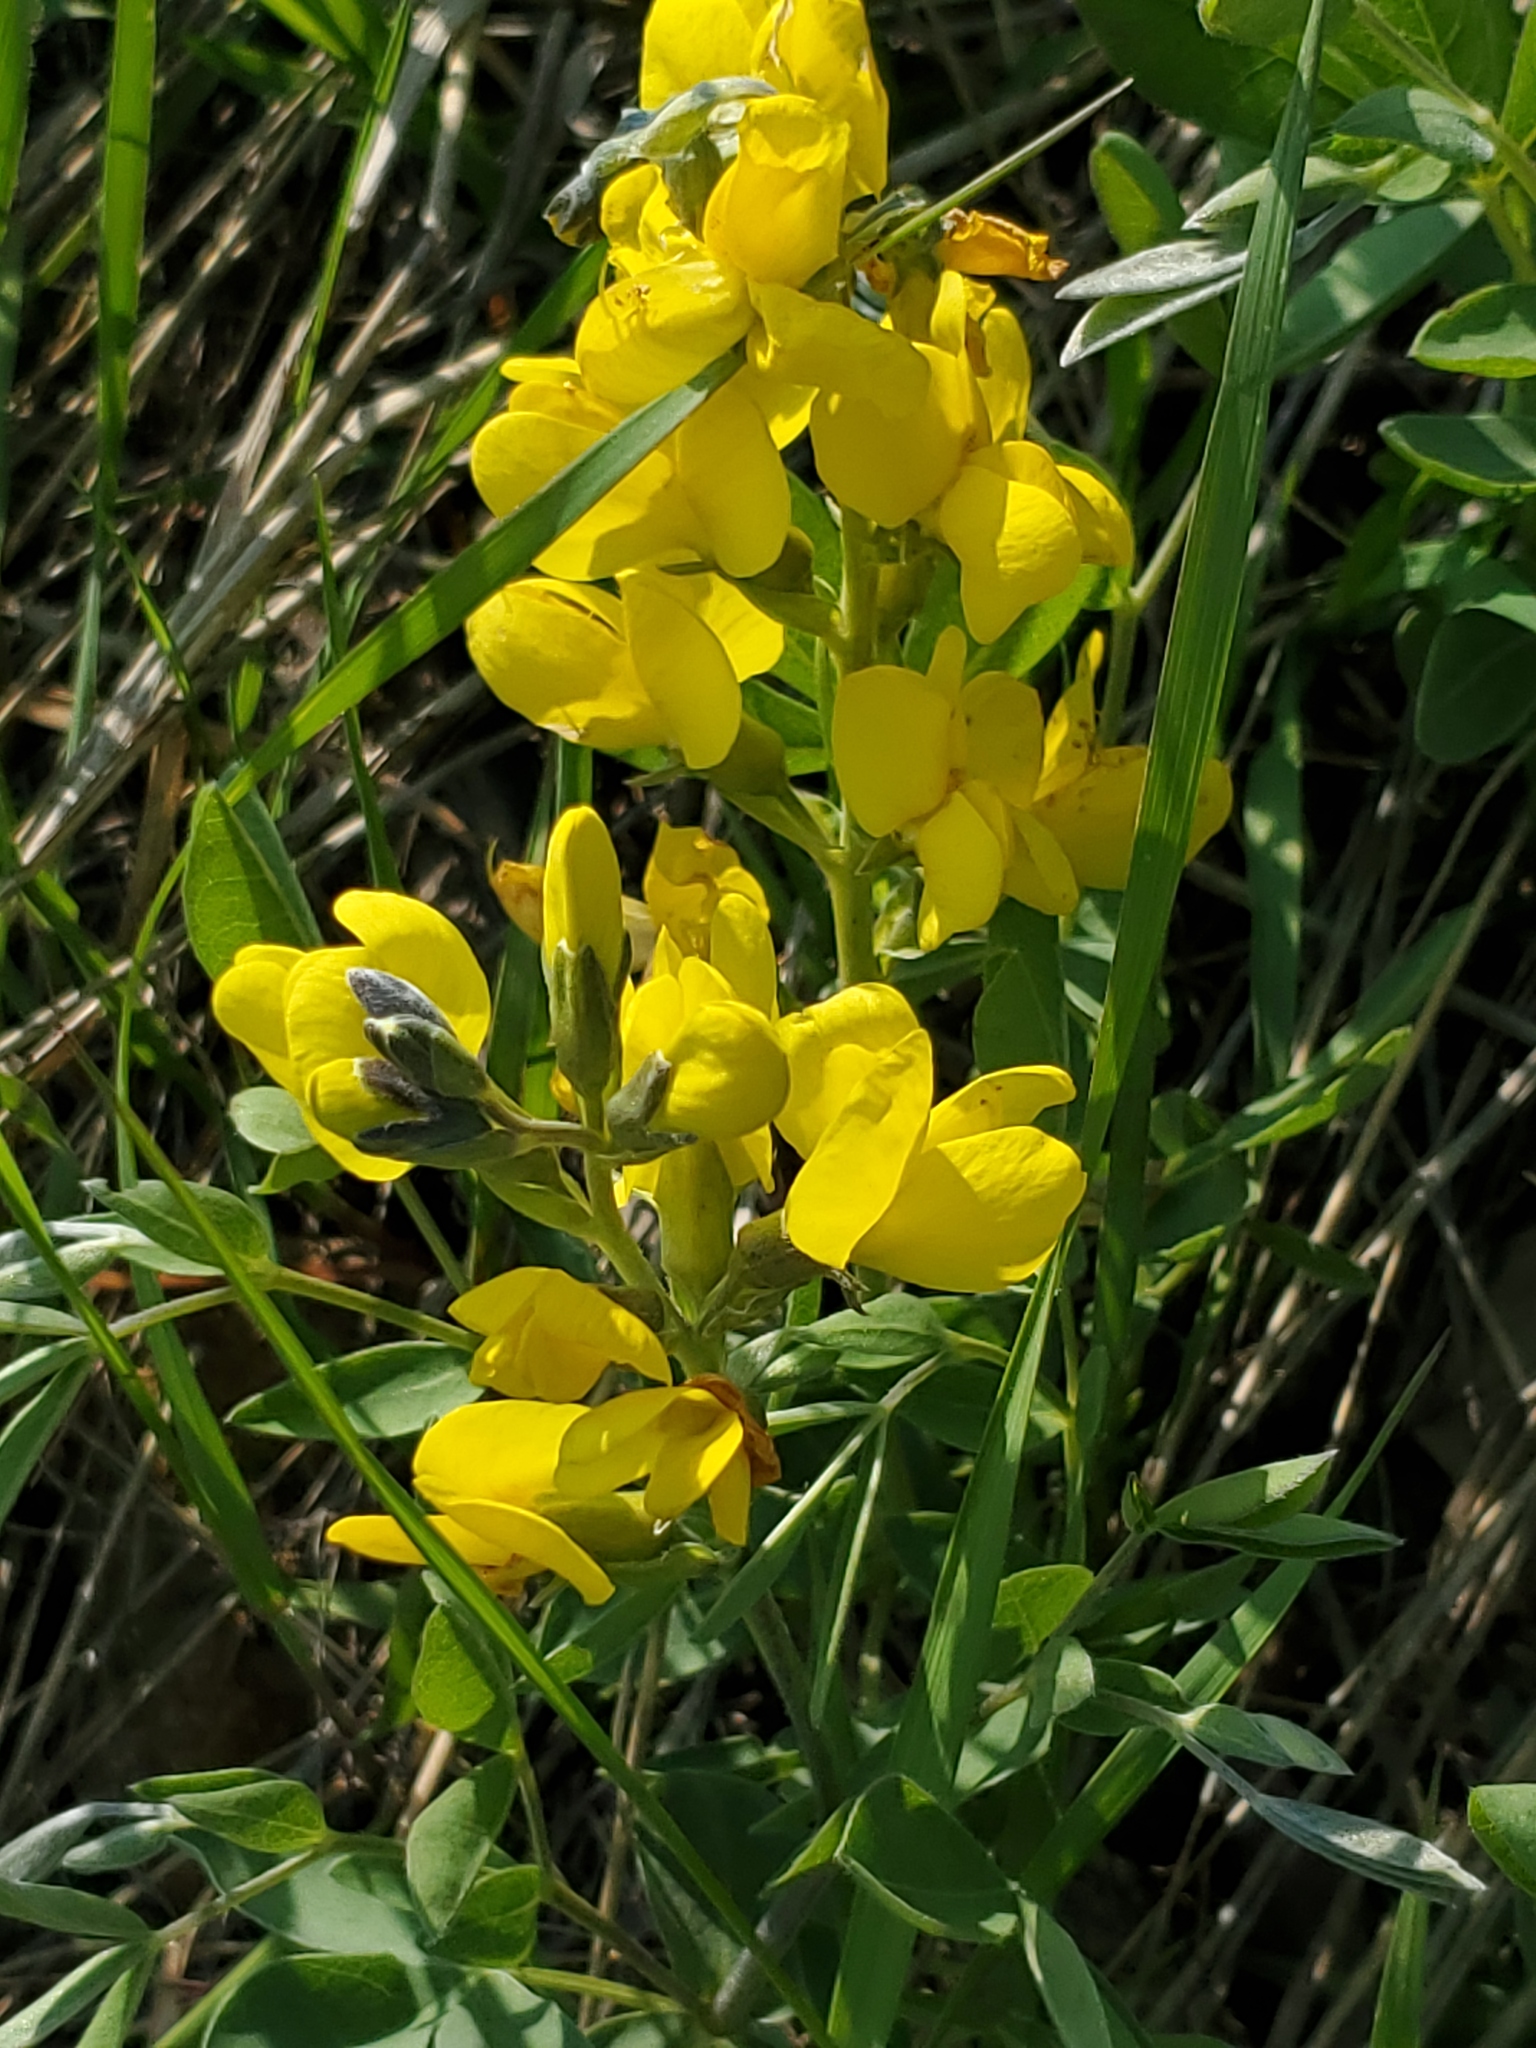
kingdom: Plantae
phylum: Tracheophyta
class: Magnoliopsida
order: Fabales
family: Fabaceae
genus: Thermopsis
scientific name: Thermopsis rhombifolia
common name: Circle-pod-pea
